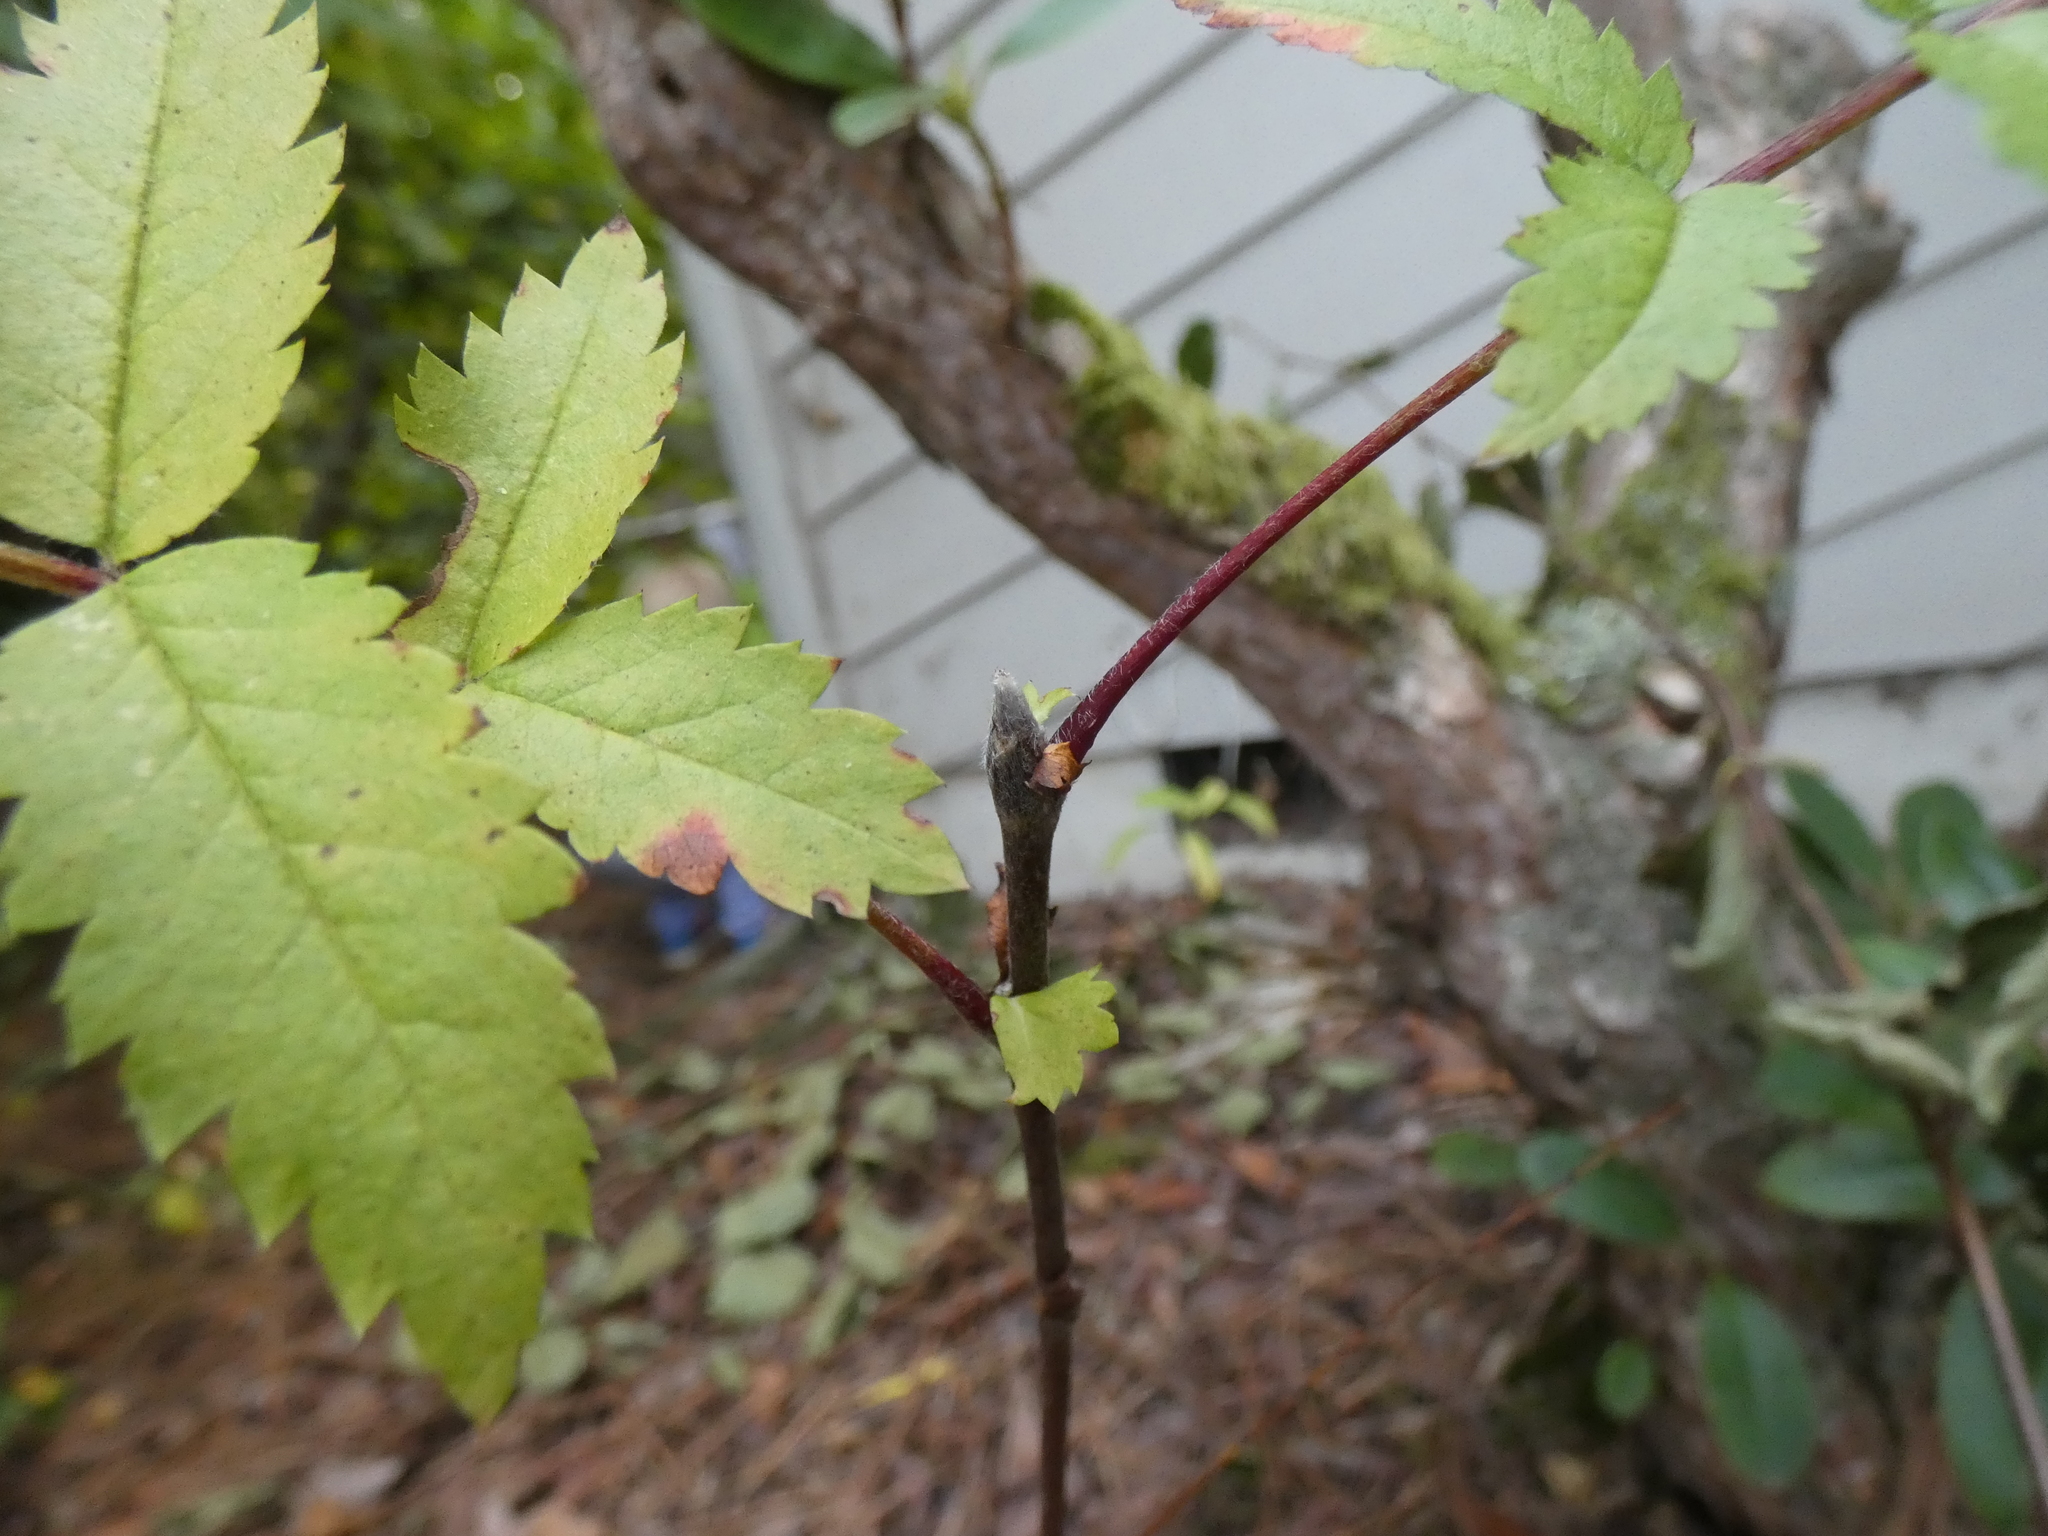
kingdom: Plantae
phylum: Tracheophyta
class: Magnoliopsida
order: Rosales
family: Rosaceae
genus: Sorbus
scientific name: Sorbus aucuparia
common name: Rowan
